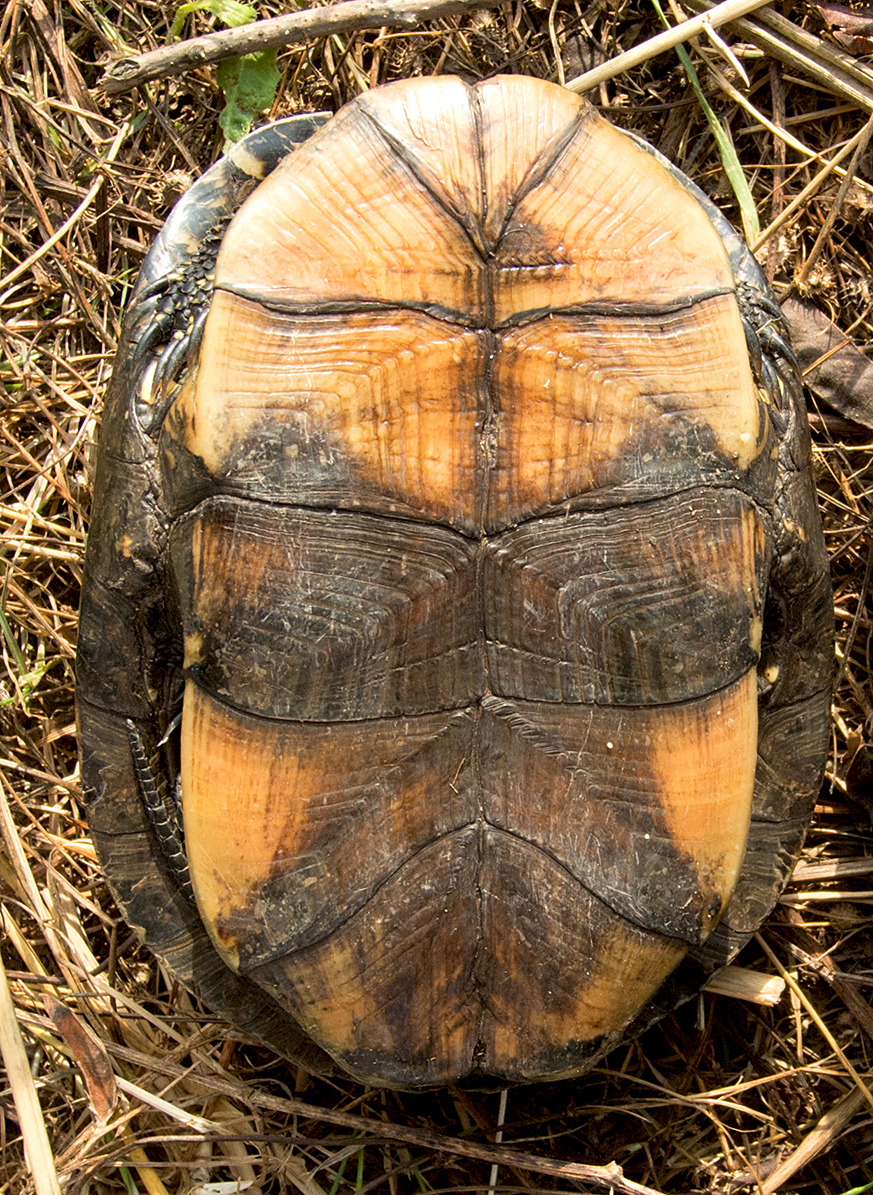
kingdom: Animalia
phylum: Chordata
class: Testudines
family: Emydidae
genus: Emys
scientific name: Emys orbicularis
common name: European pond turtle
